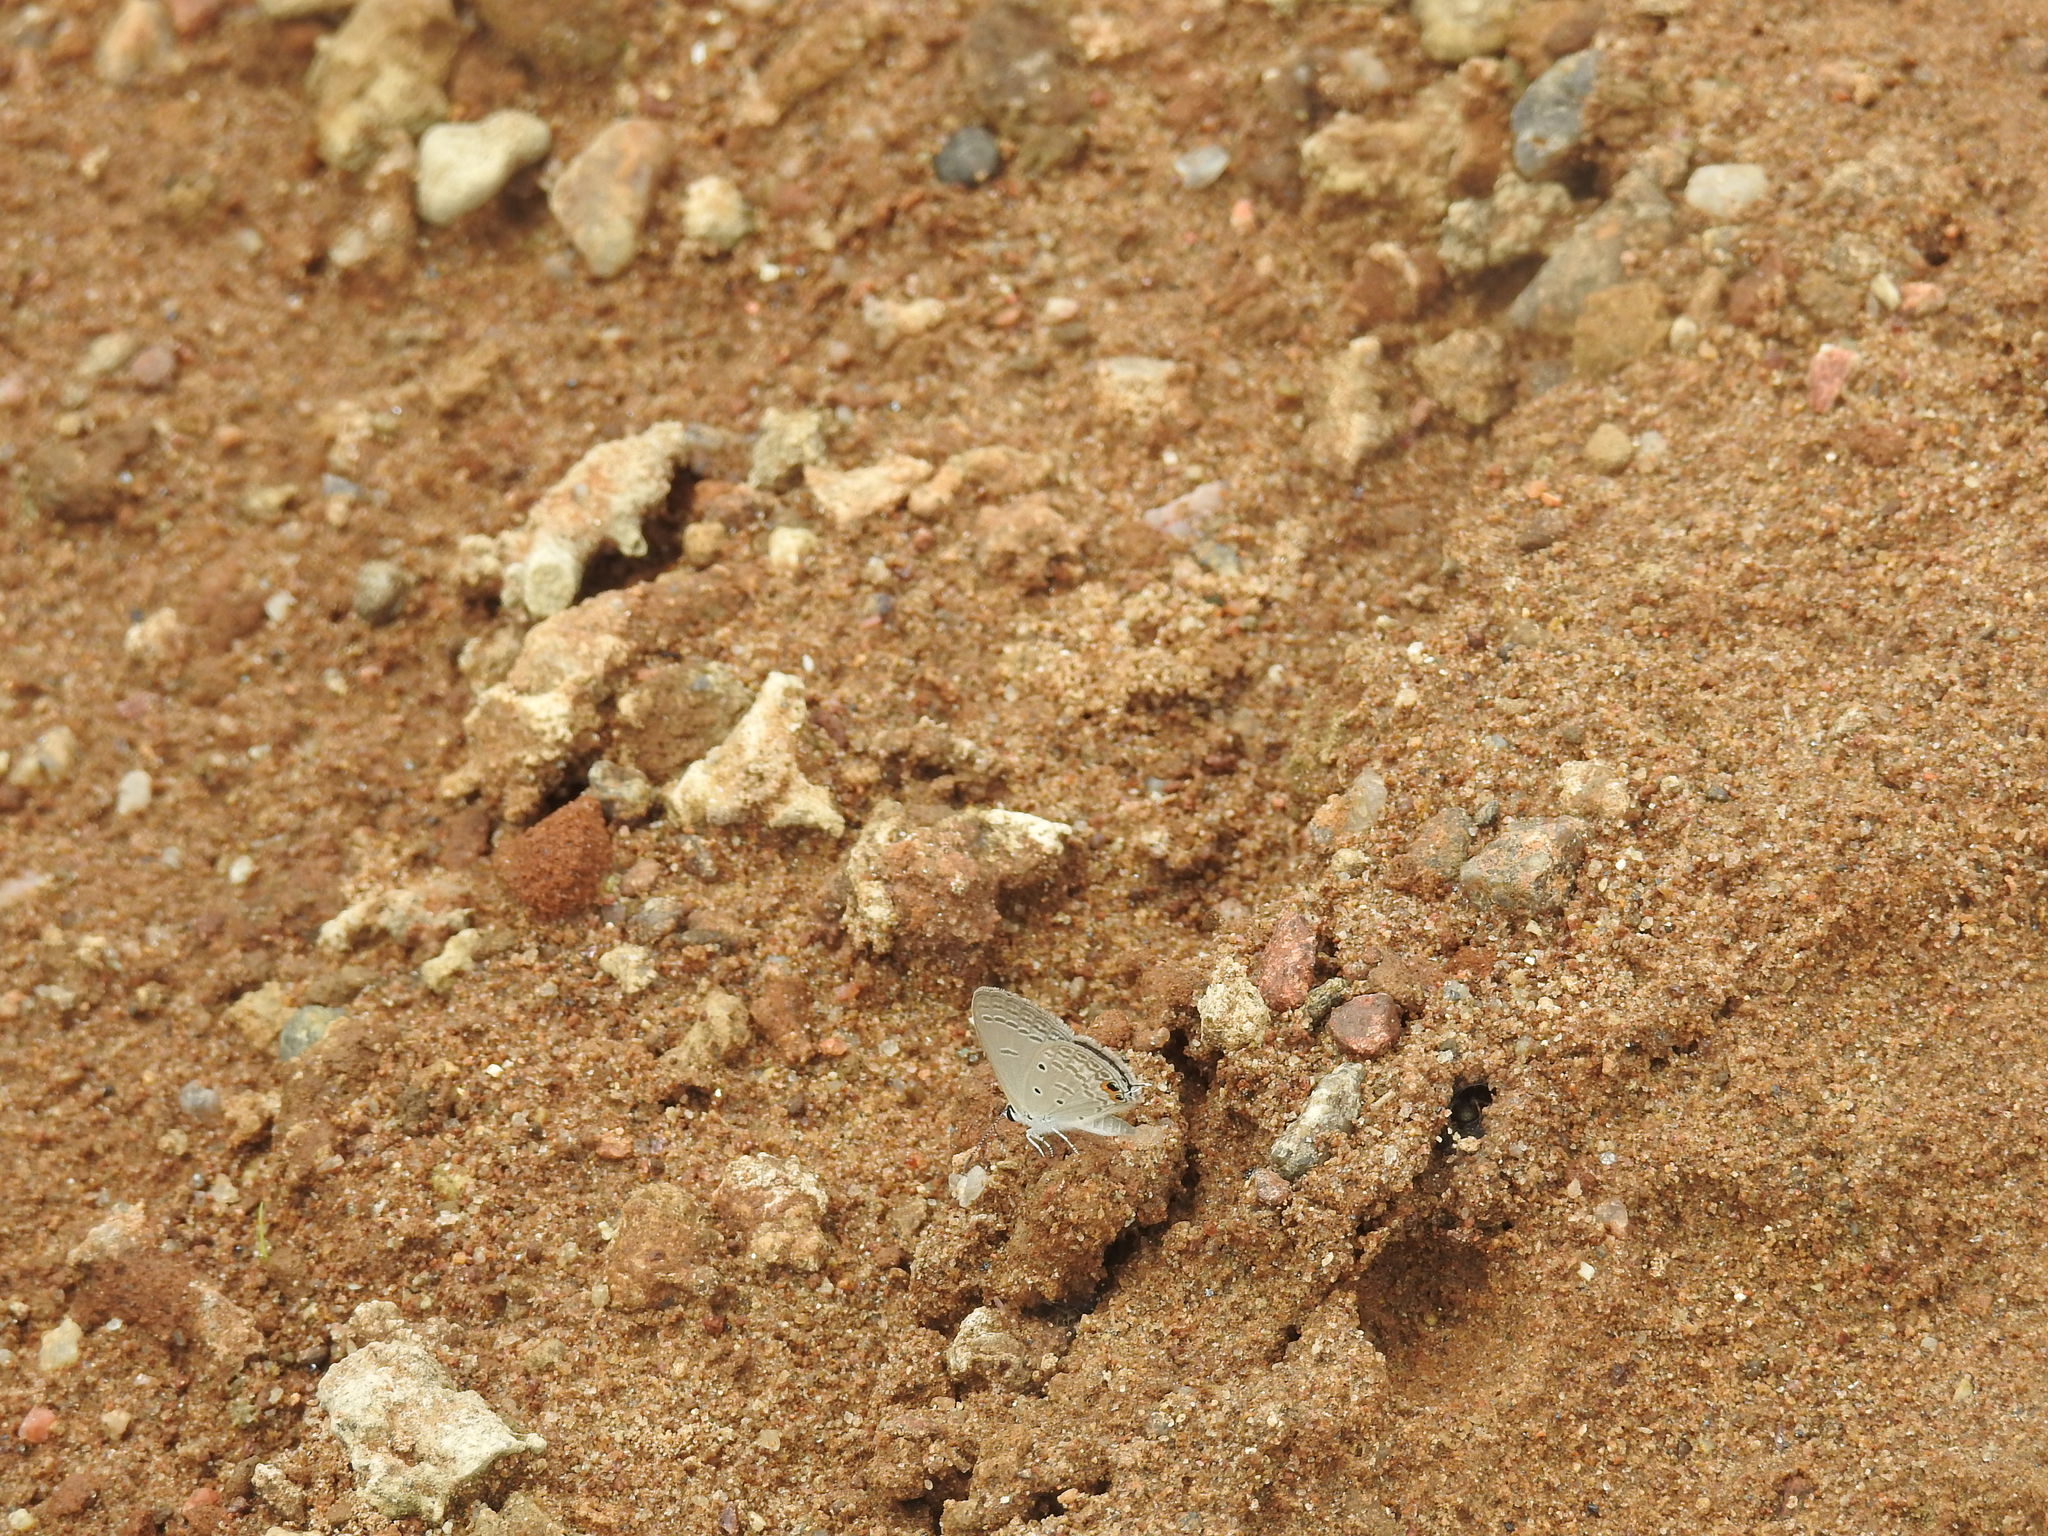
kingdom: Animalia
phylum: Arthropoda
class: Insecta
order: Lepidoptera
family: Lycaenidae
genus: Euchrysops
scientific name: Euchrysops cnejus
